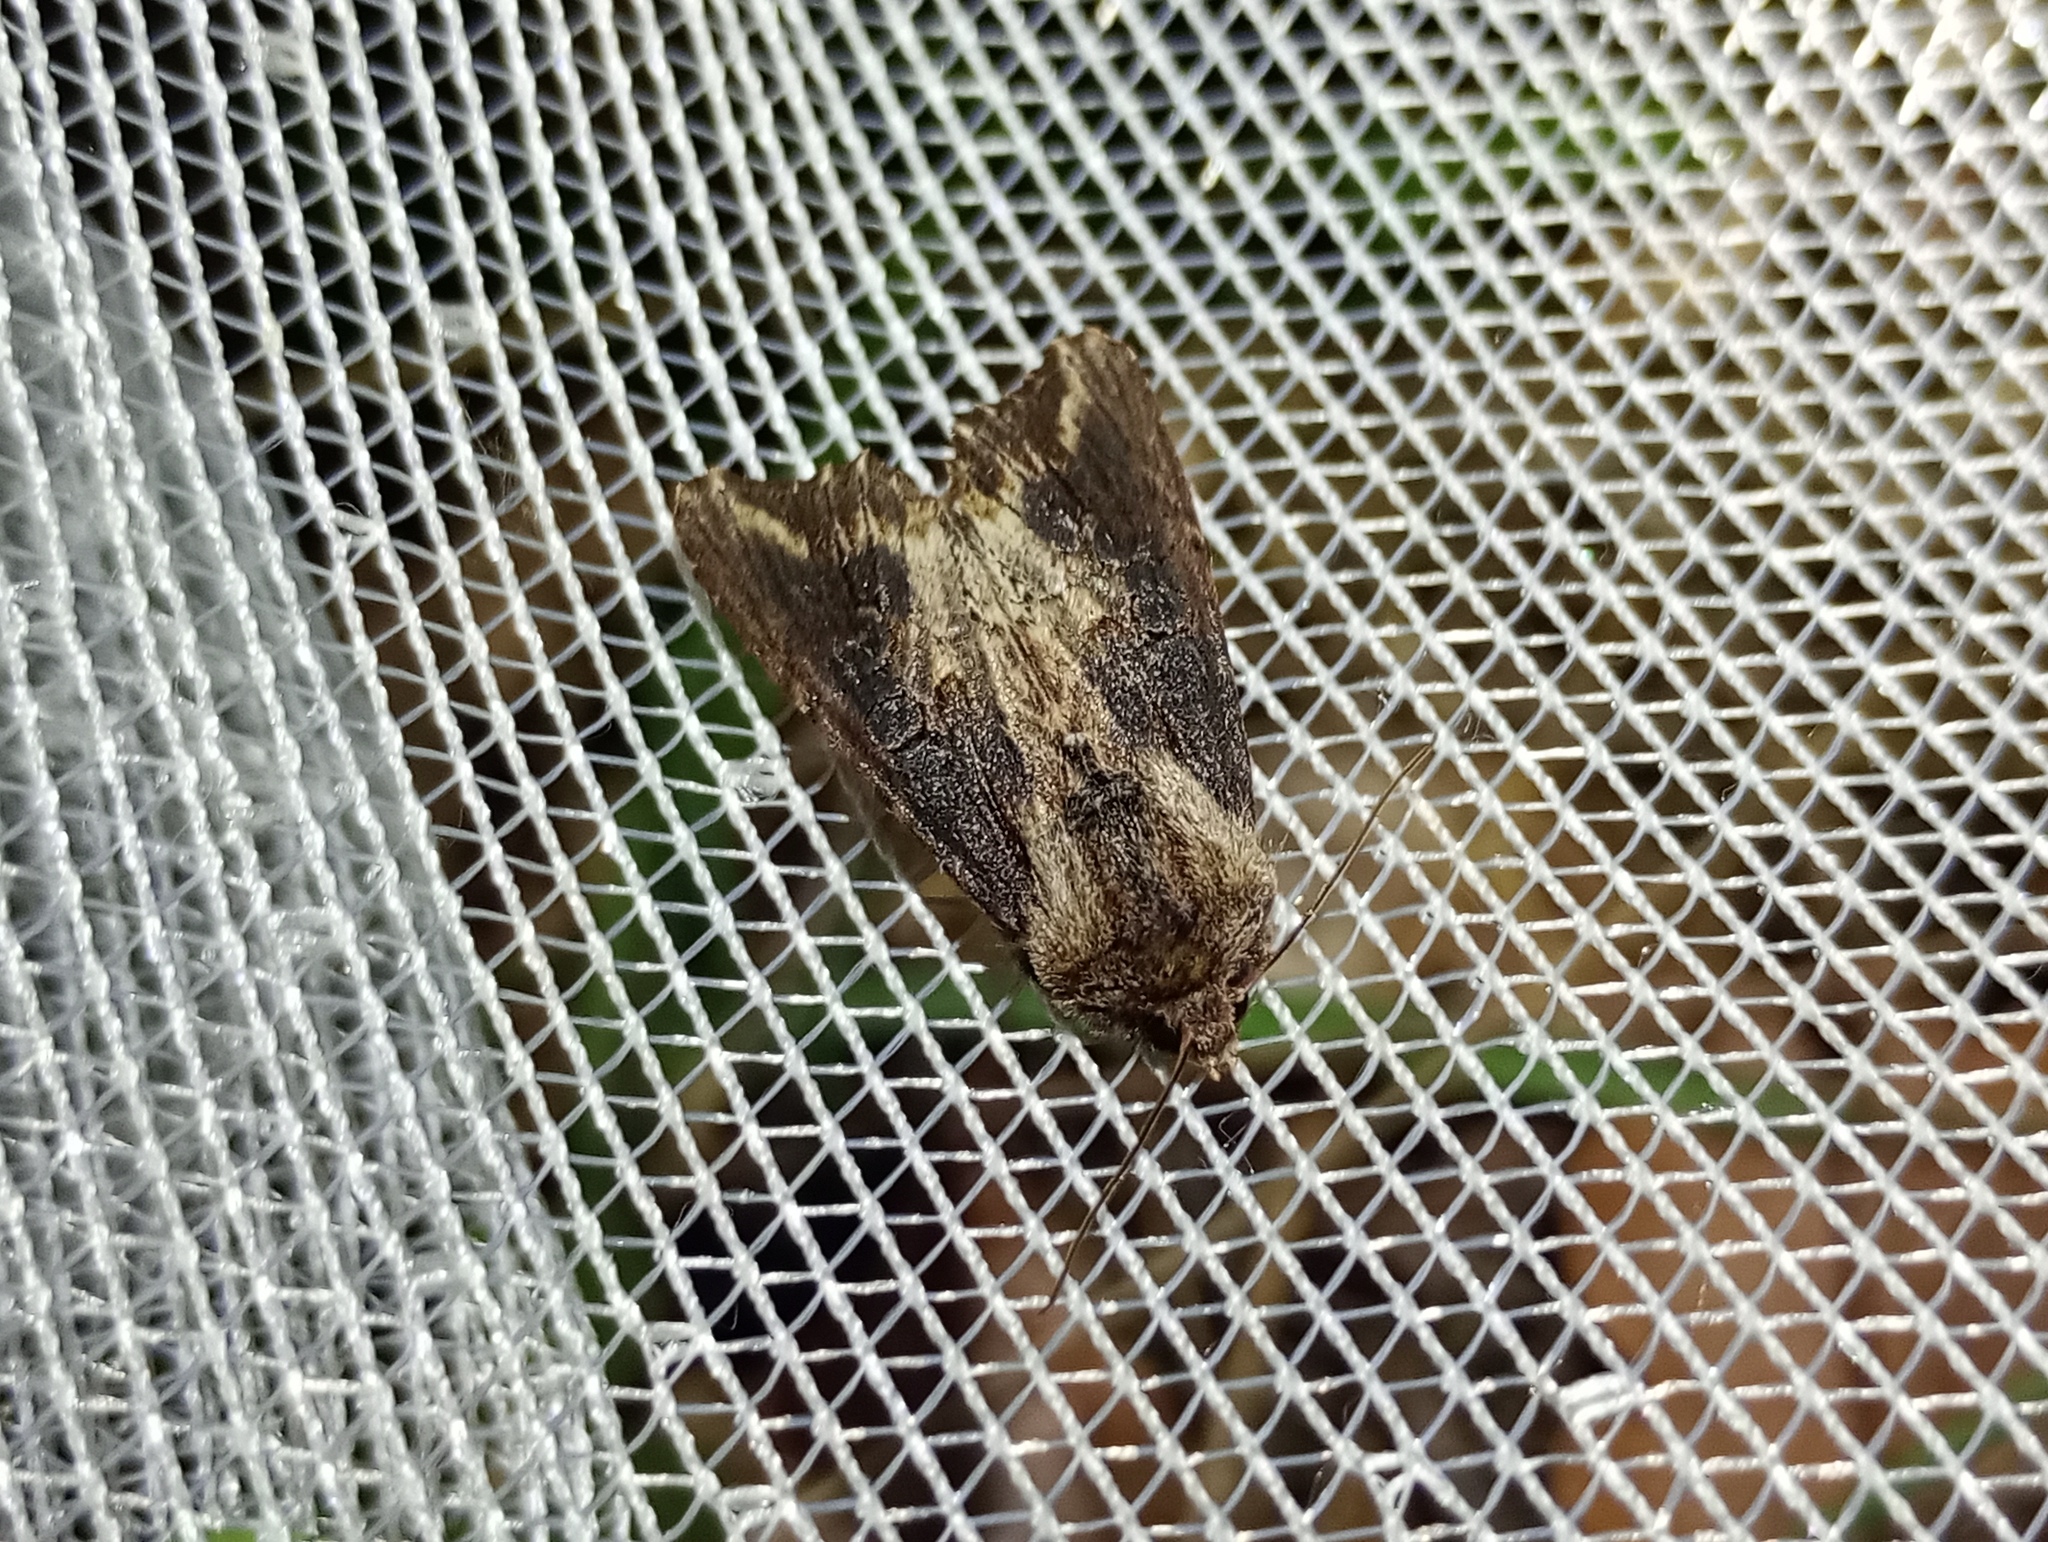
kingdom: Animalia
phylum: Arthropoda
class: Insecta
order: Lepidoptera
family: Noctuidae
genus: Egira
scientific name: Egira conspicillaris
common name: Silver cloud
